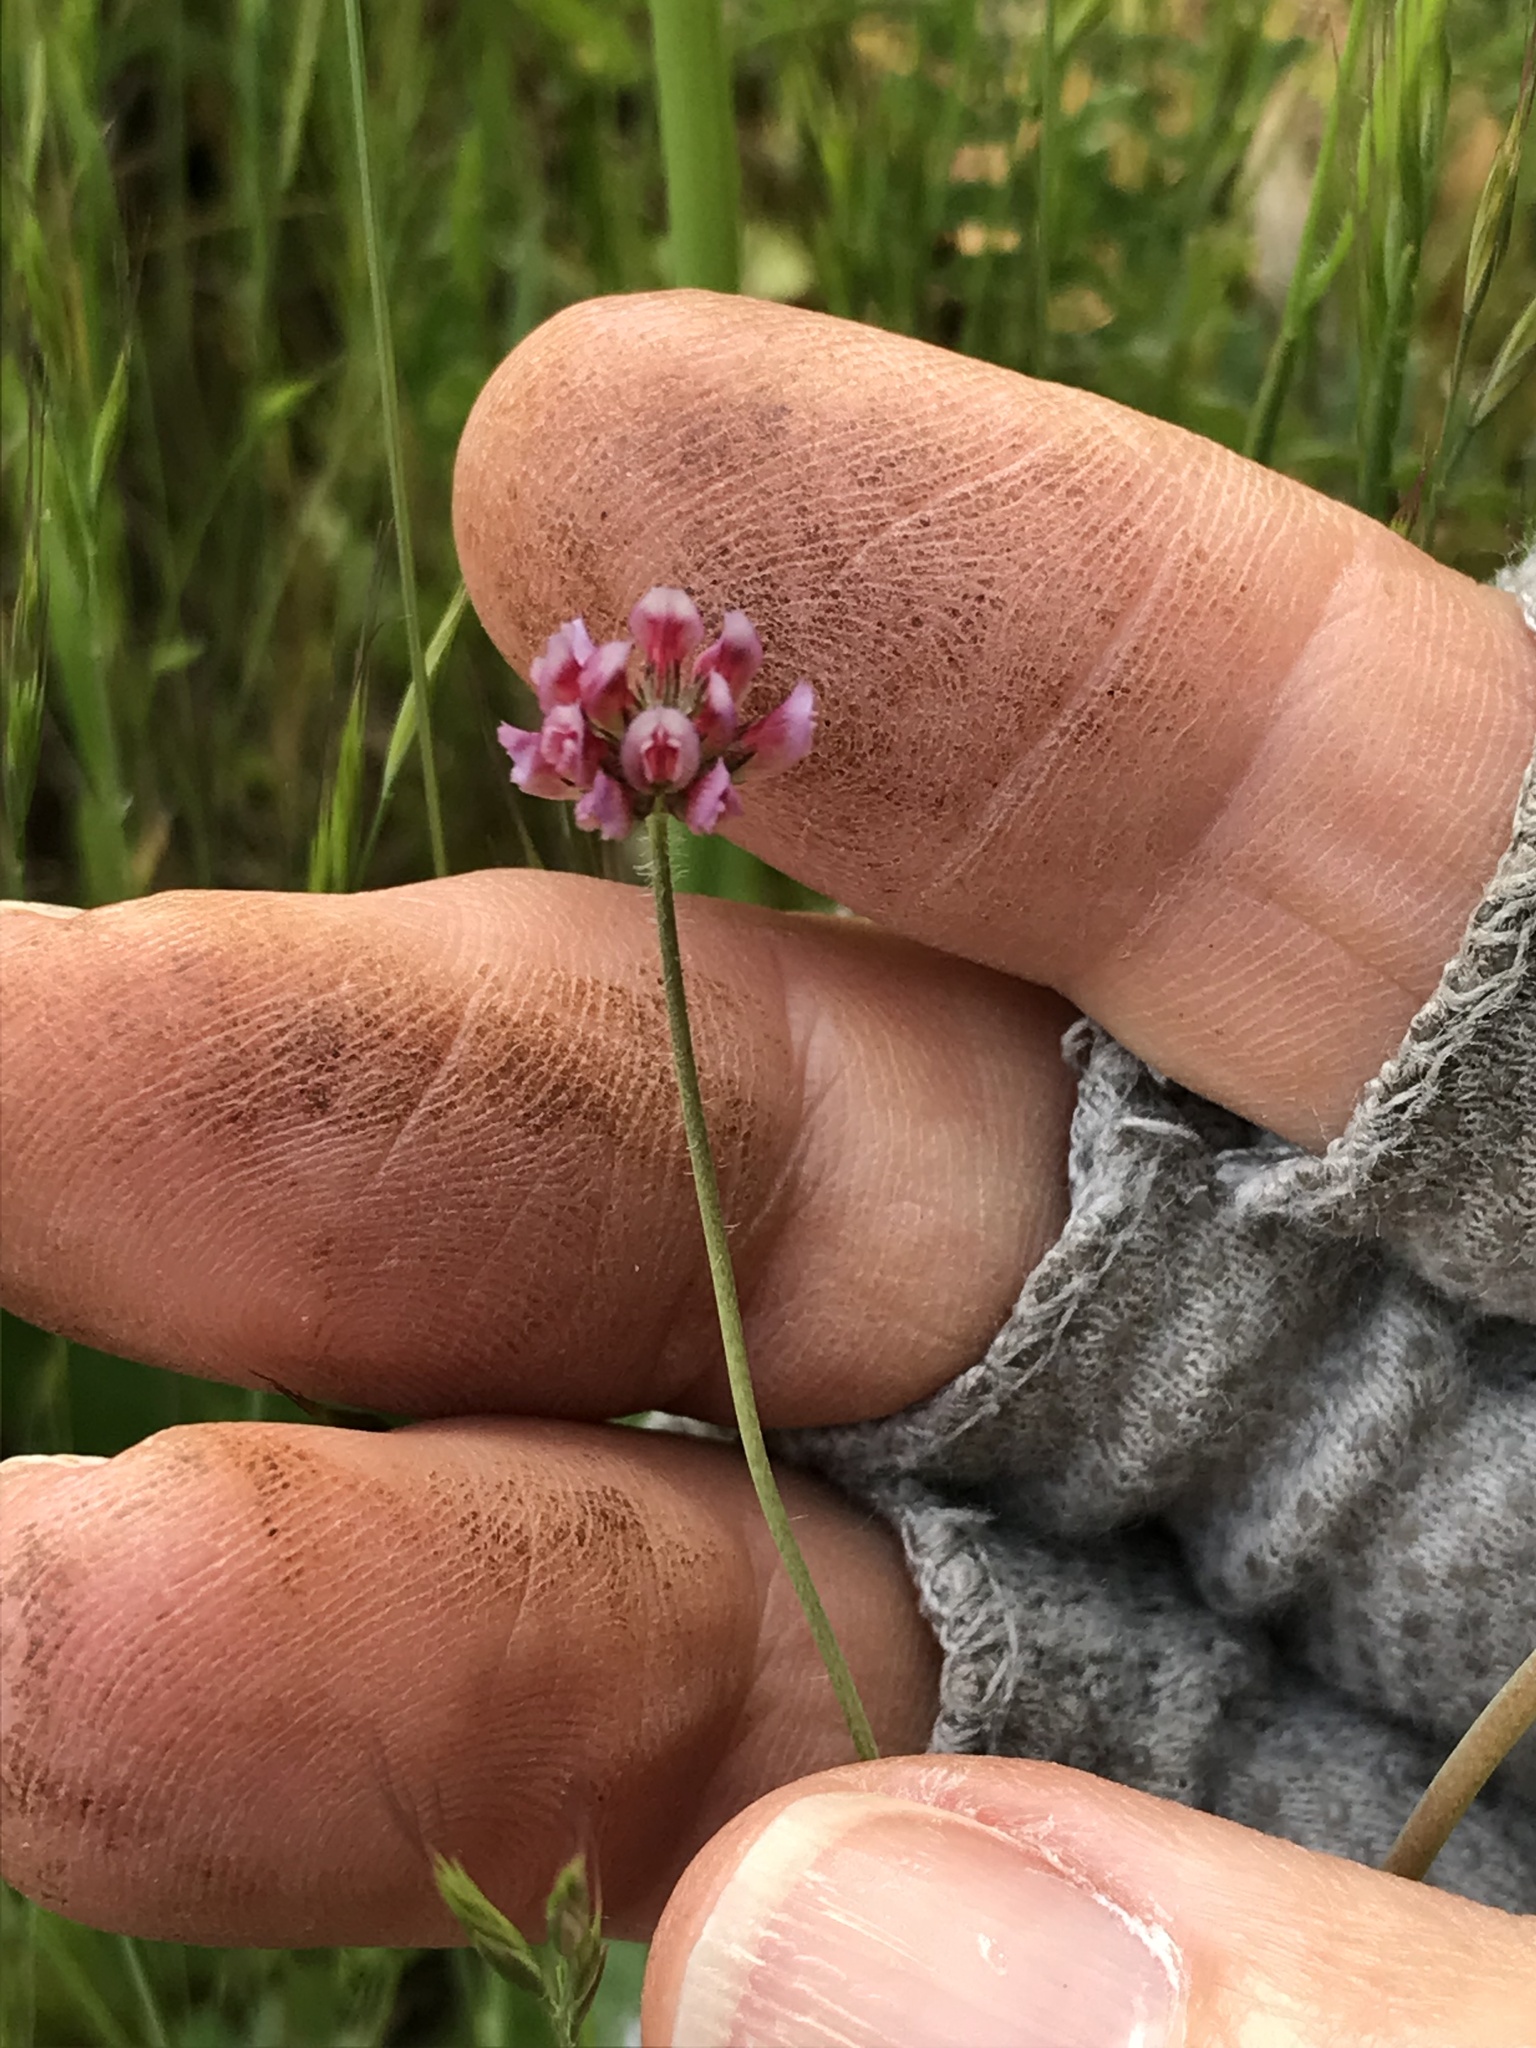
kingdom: Plantae
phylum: Tracheophyta
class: Magnoliopsida
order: Fabales
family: Fabaceae
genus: Trifolium
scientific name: Trifolium bifidum
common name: Notch-leaf clover
